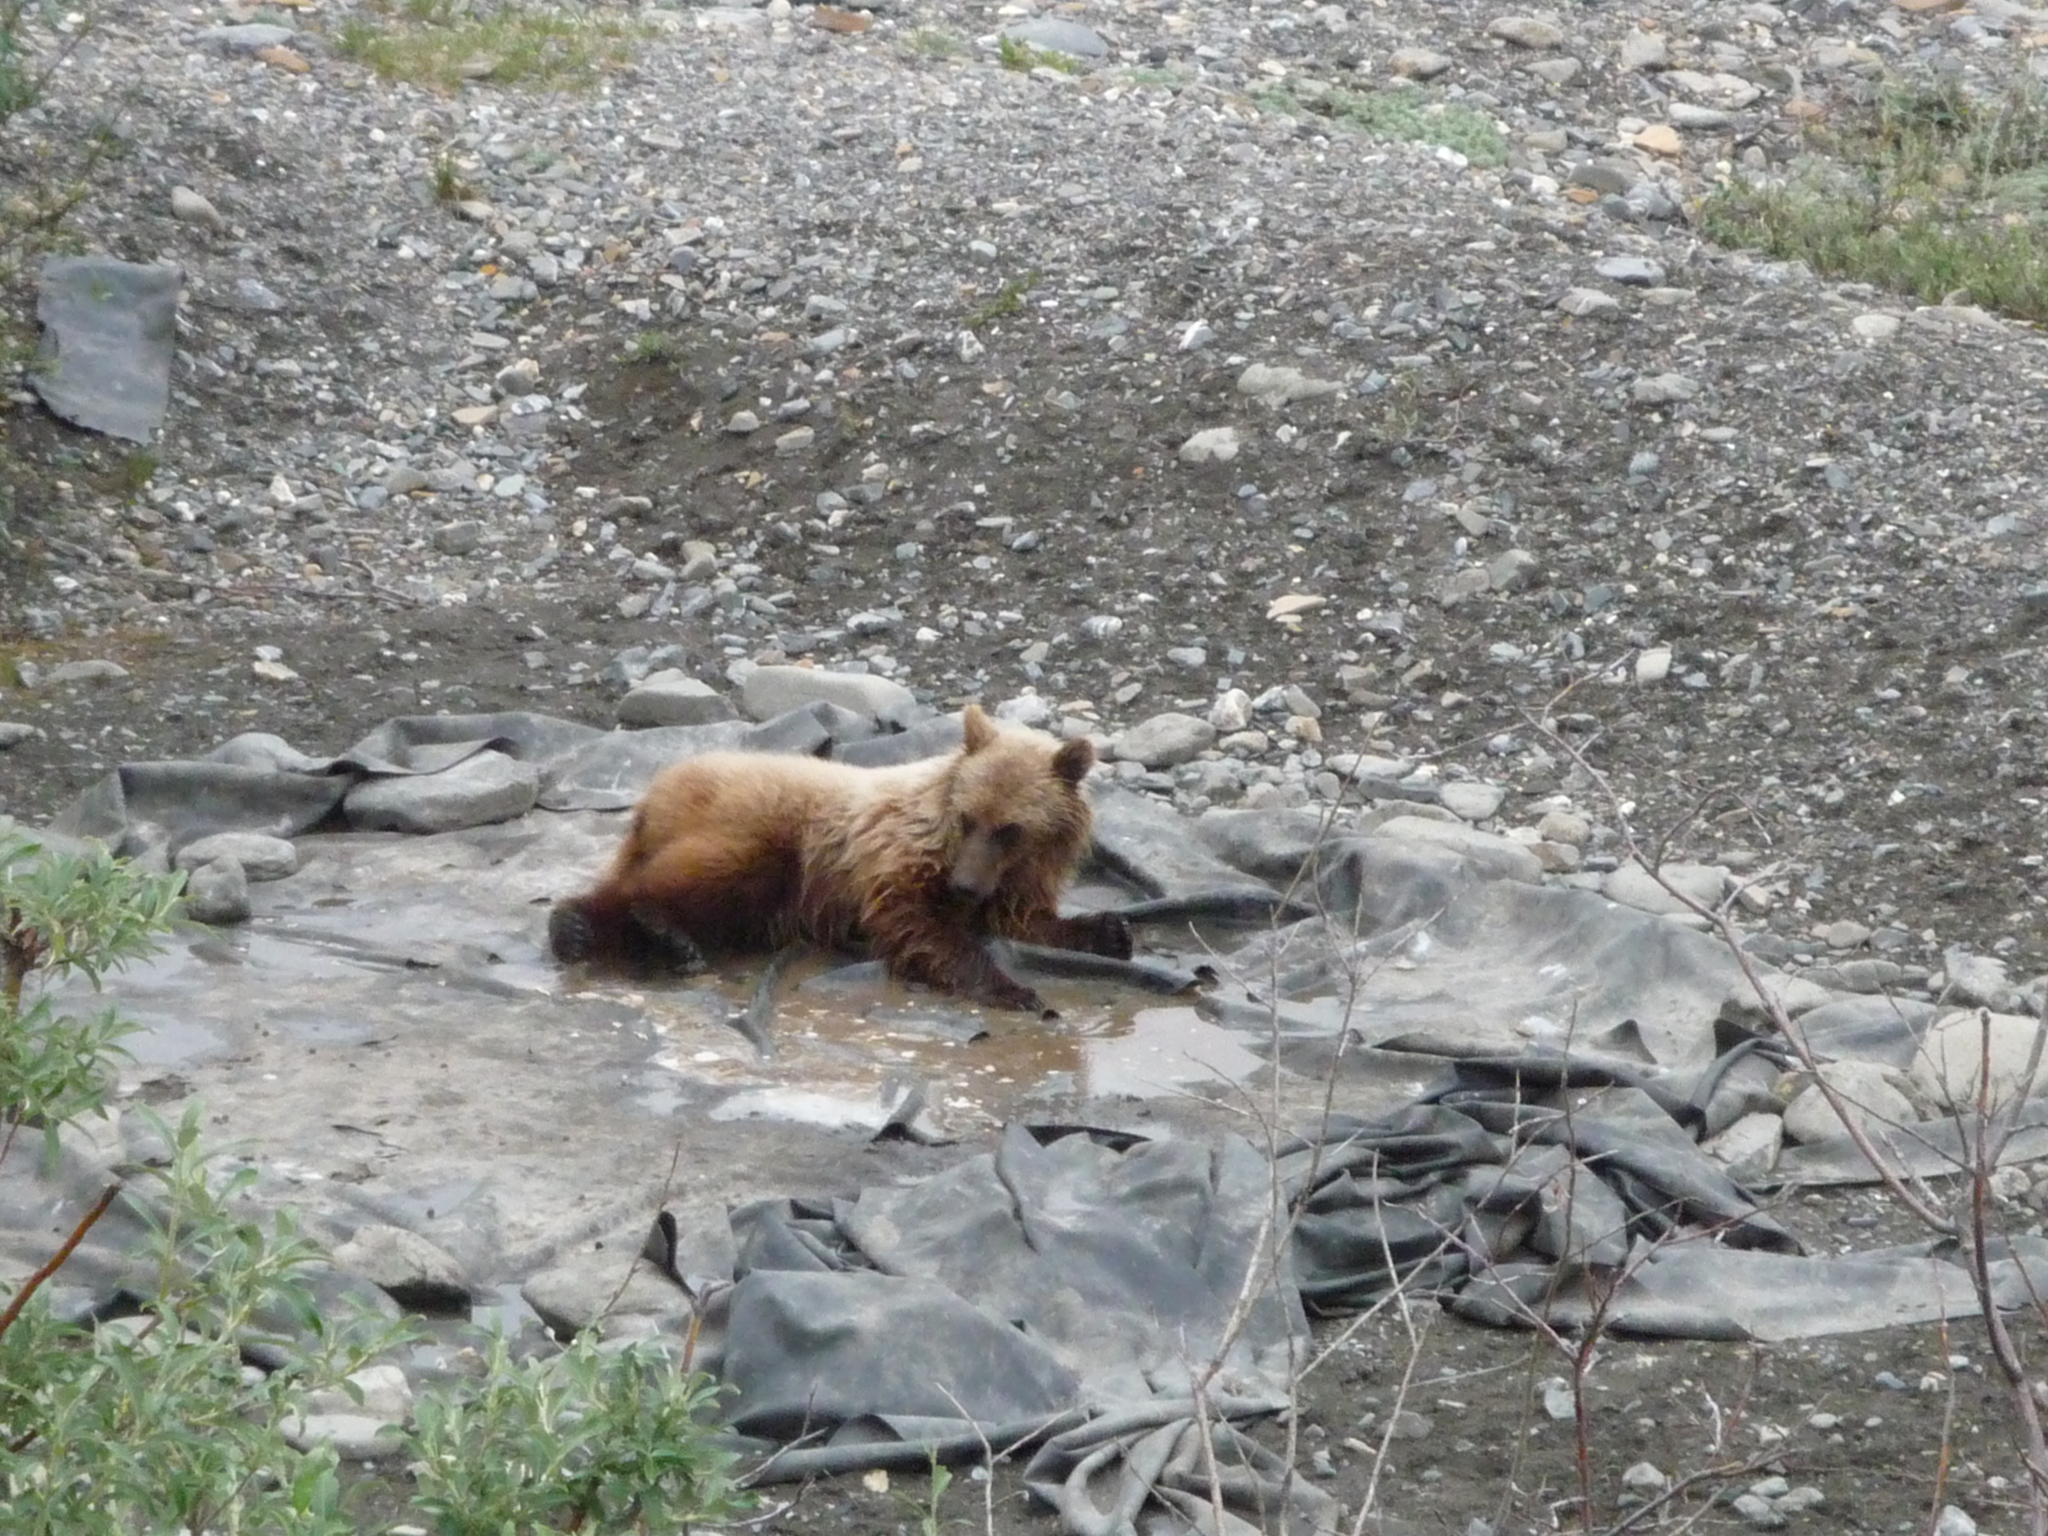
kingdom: Animalia
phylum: Chordata
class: Mammalia
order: Carnivora
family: Ursidae
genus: Ursus
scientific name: Ursus arctos
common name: Brown bear
